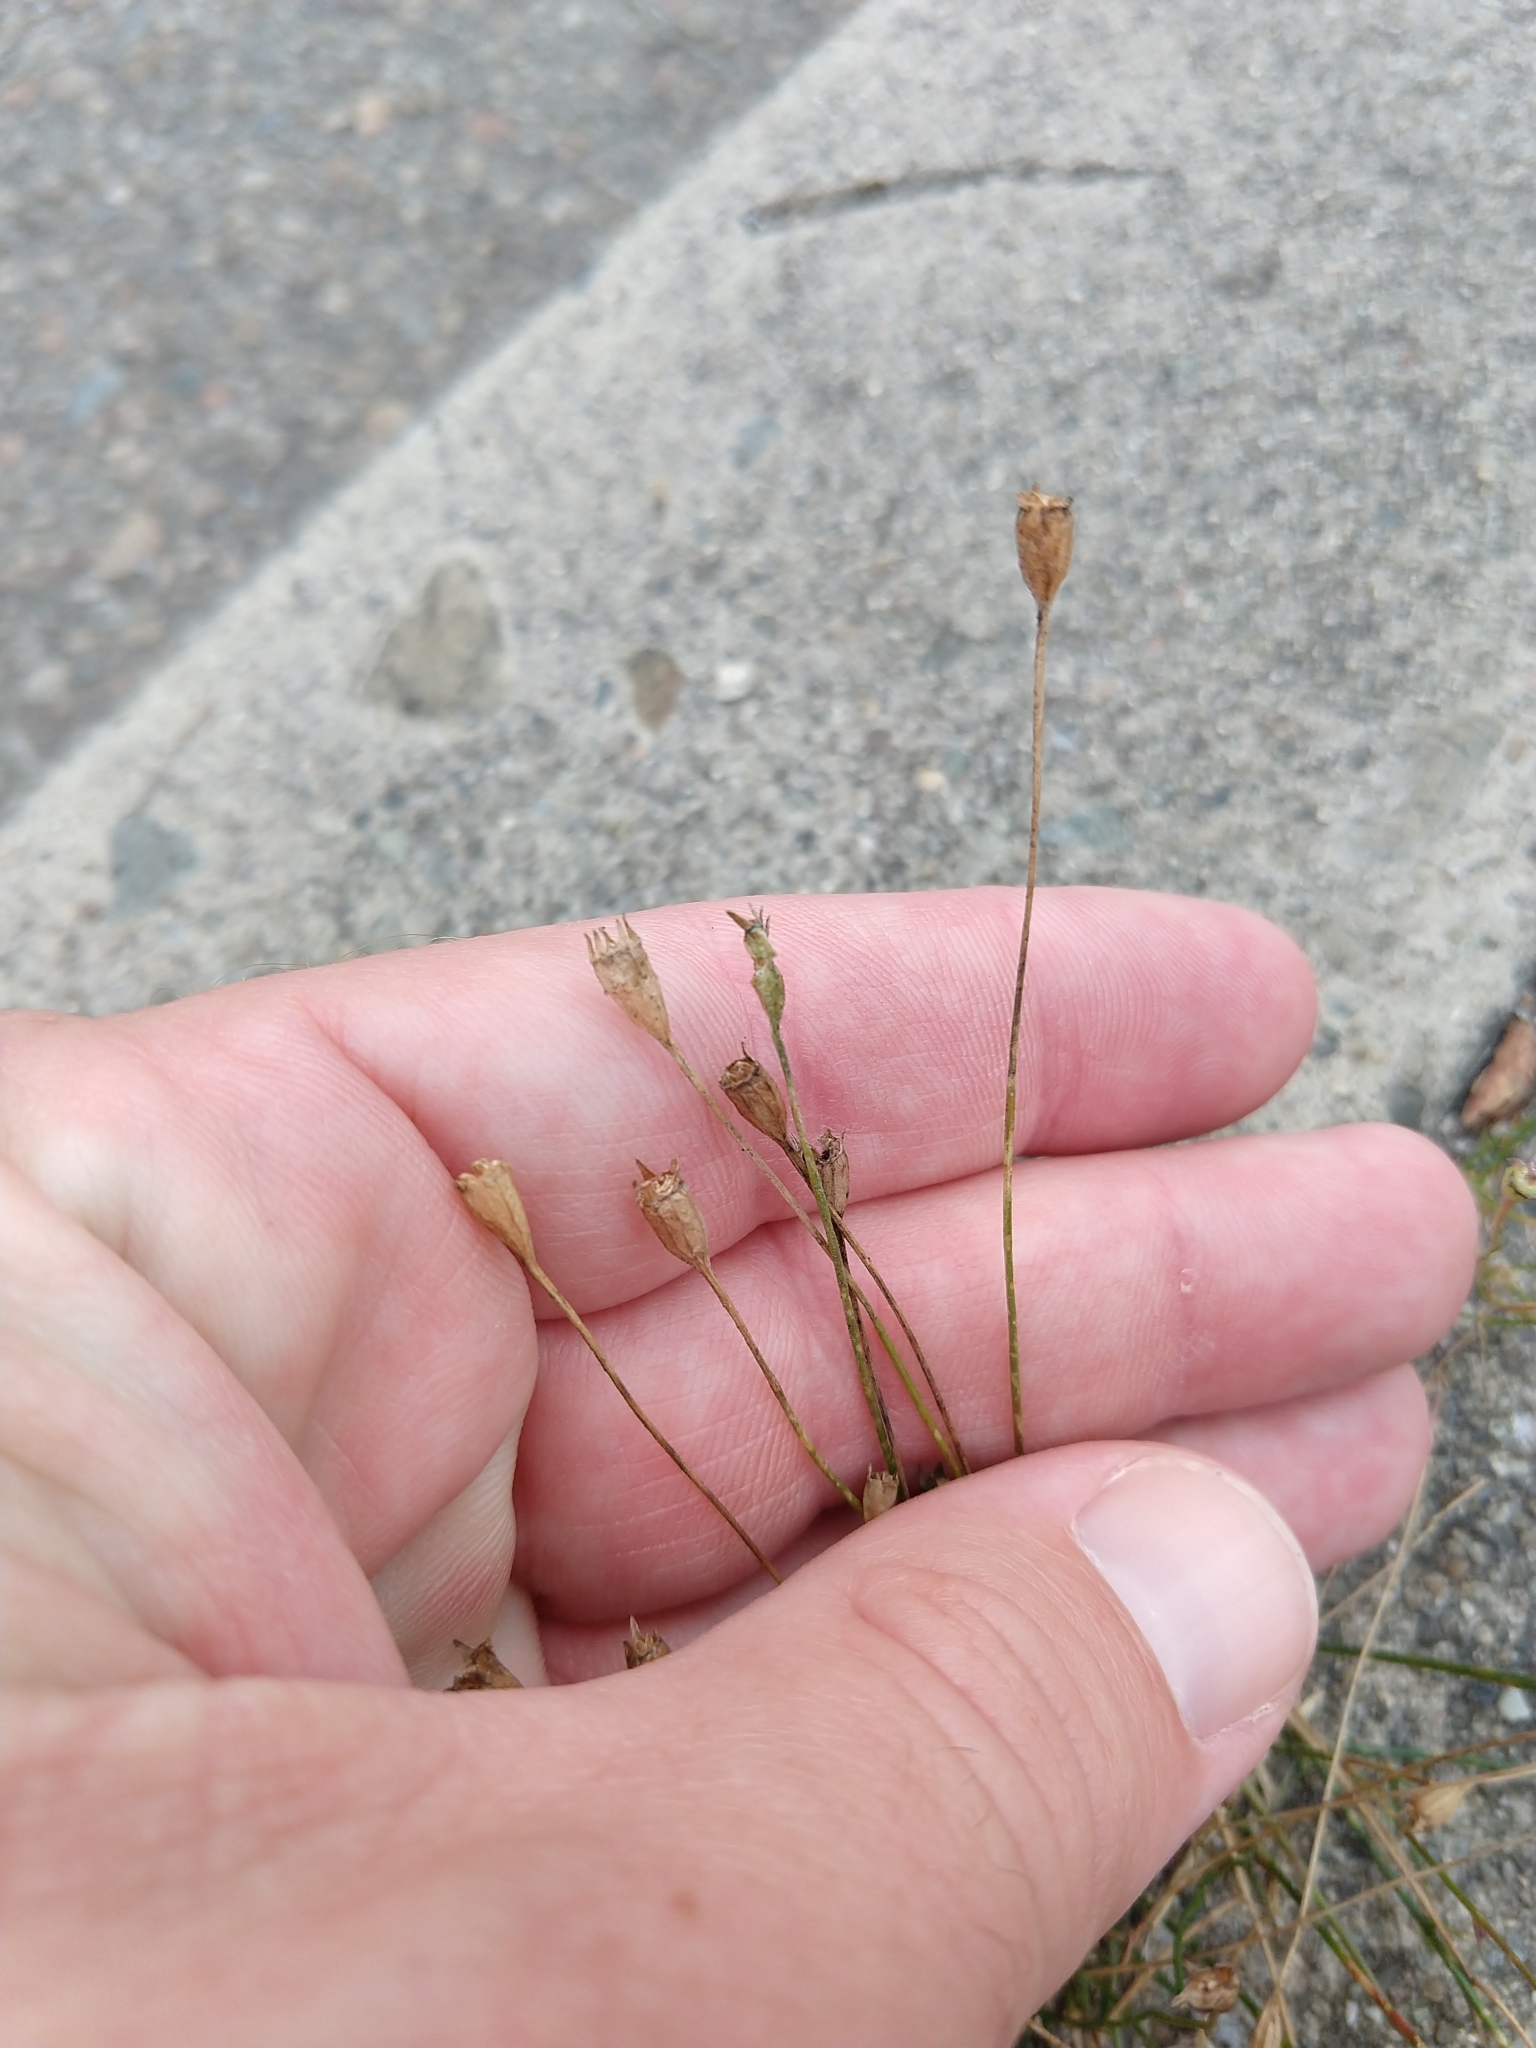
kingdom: Plantae
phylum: Tracheophyta
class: Magnoliopsida
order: Asterales
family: Campanulaceae
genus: Wahlenbergia
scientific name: Wahlenbergia marginata
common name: Southern rockbell
